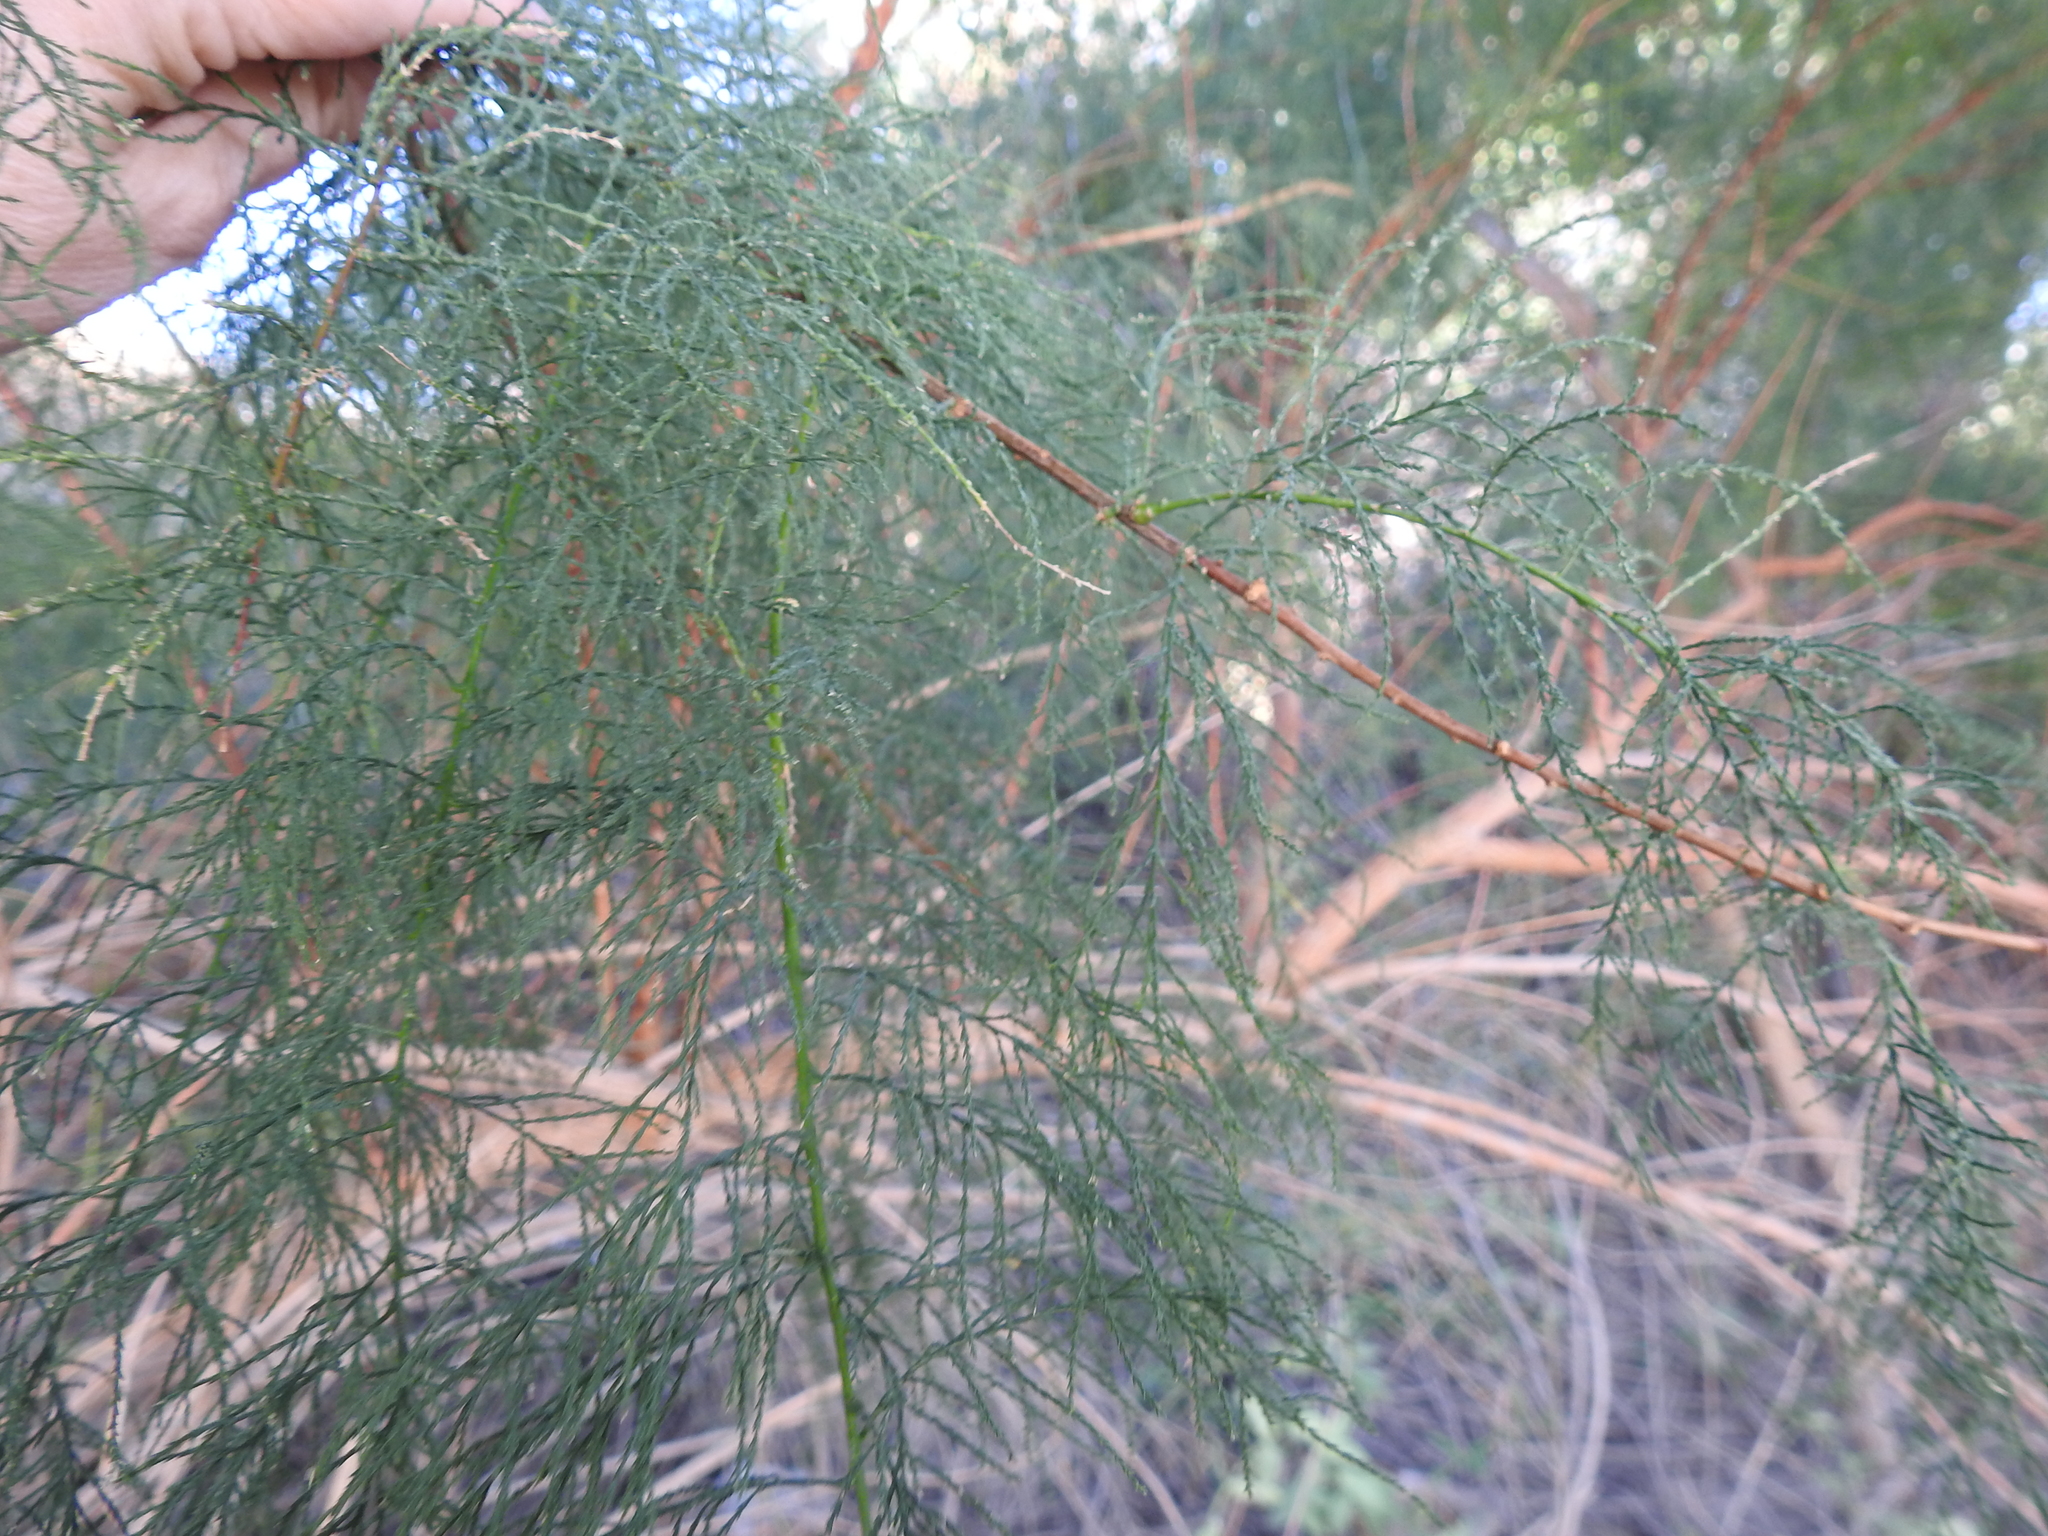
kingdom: Plantae
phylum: Tracheophyta
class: Magnoliopsida
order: Caryophyllales
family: Tamaricaceae
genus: Tamarix
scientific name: Tamarix ramosissima
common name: Pink tamarisk
